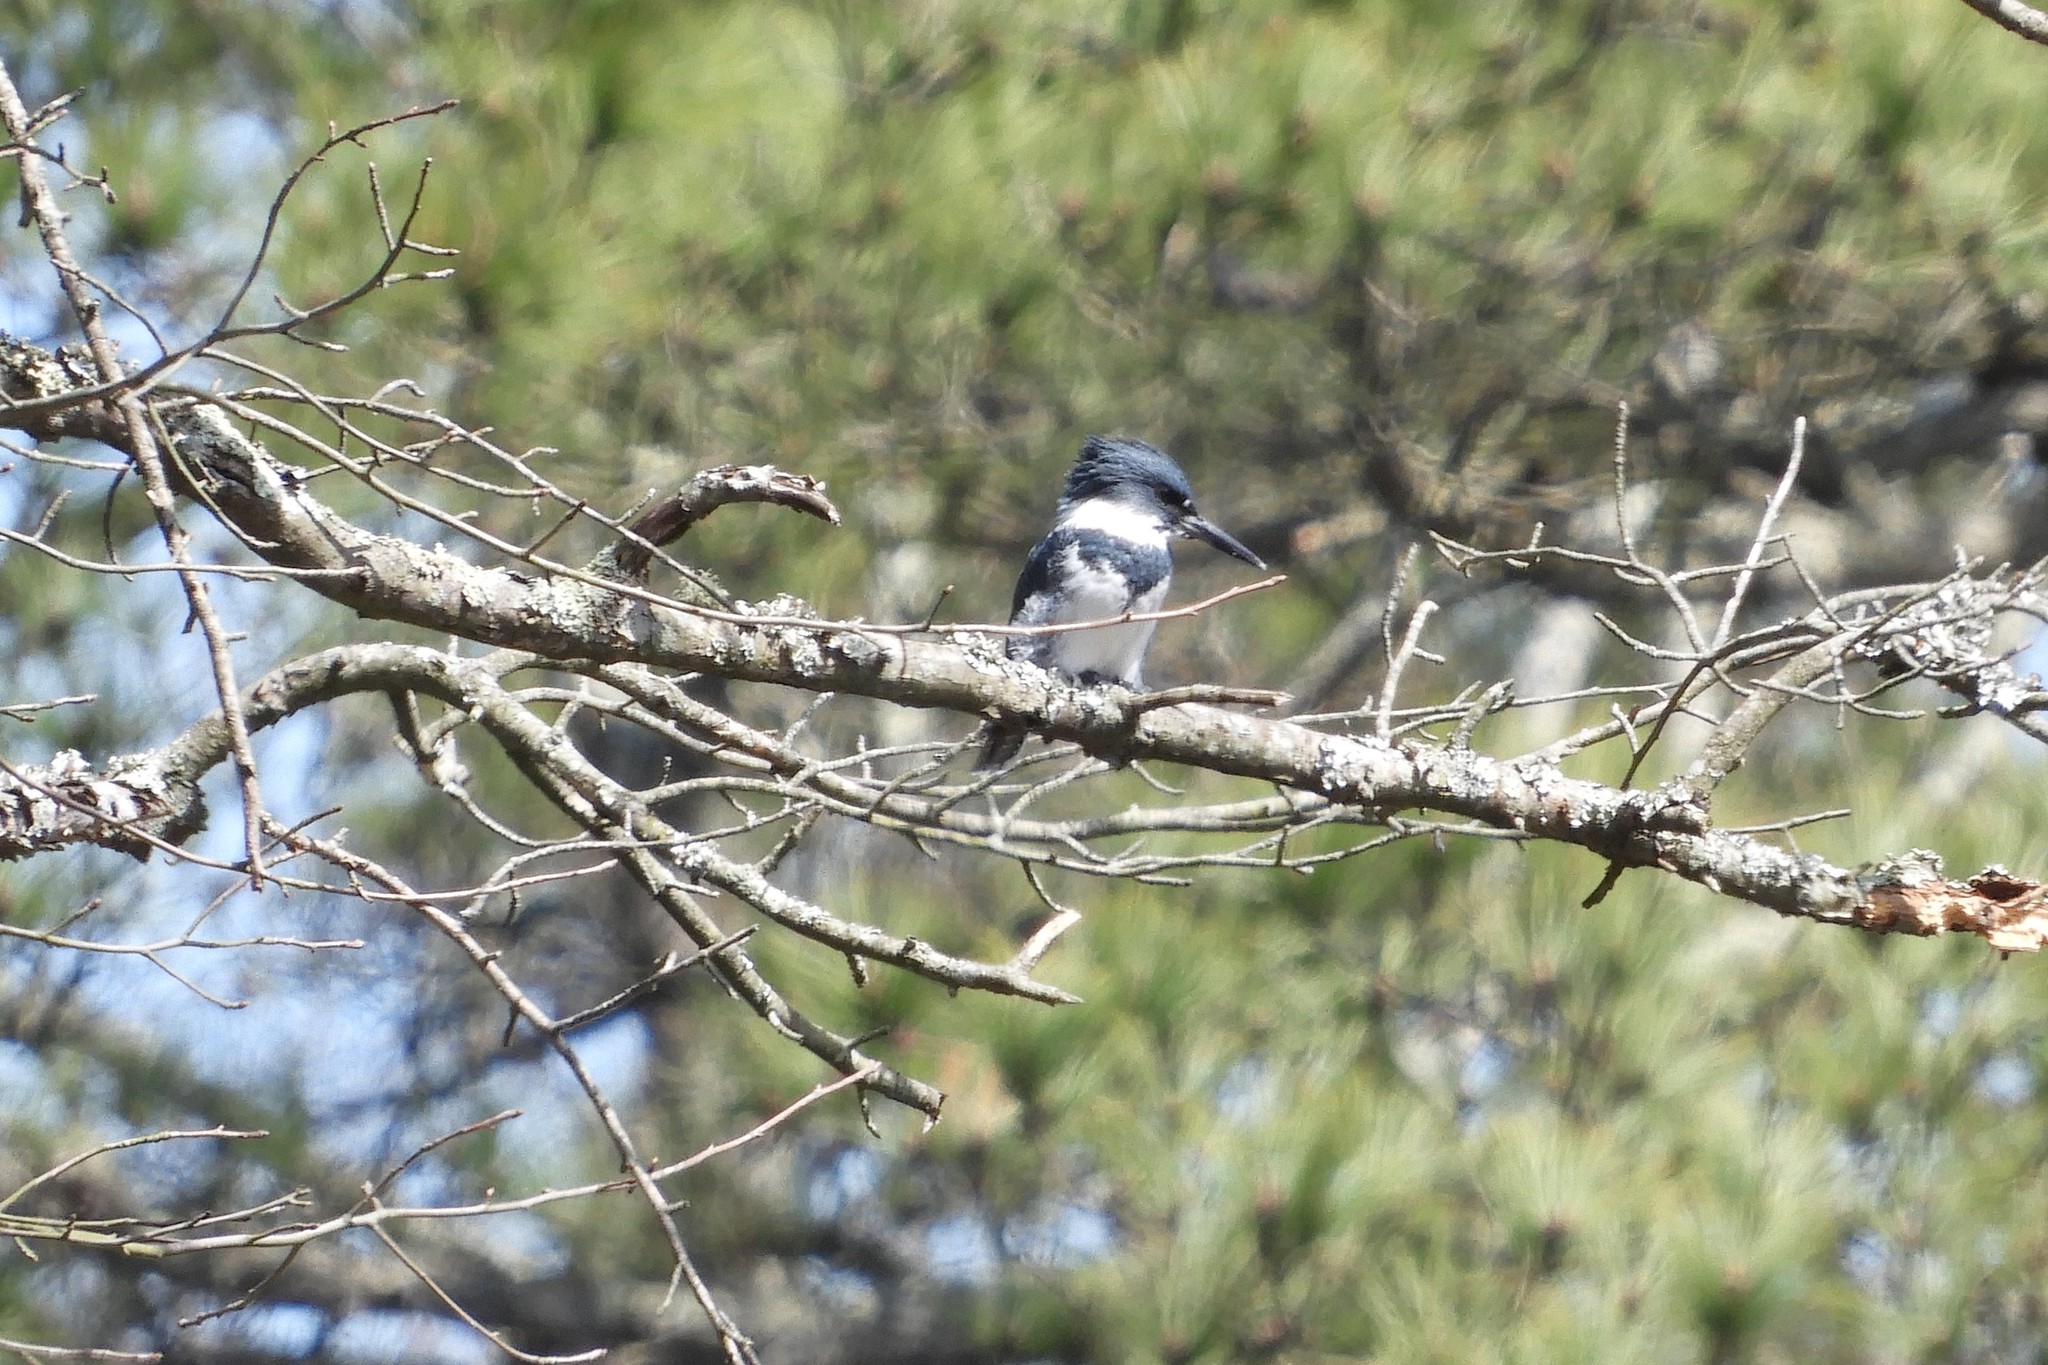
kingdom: Animalia
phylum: Chordata
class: Aves
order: Coraciiformes
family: Alcedinidae
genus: Megaceryle
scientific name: Megaceryle alcyon
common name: Belted kingfisher
